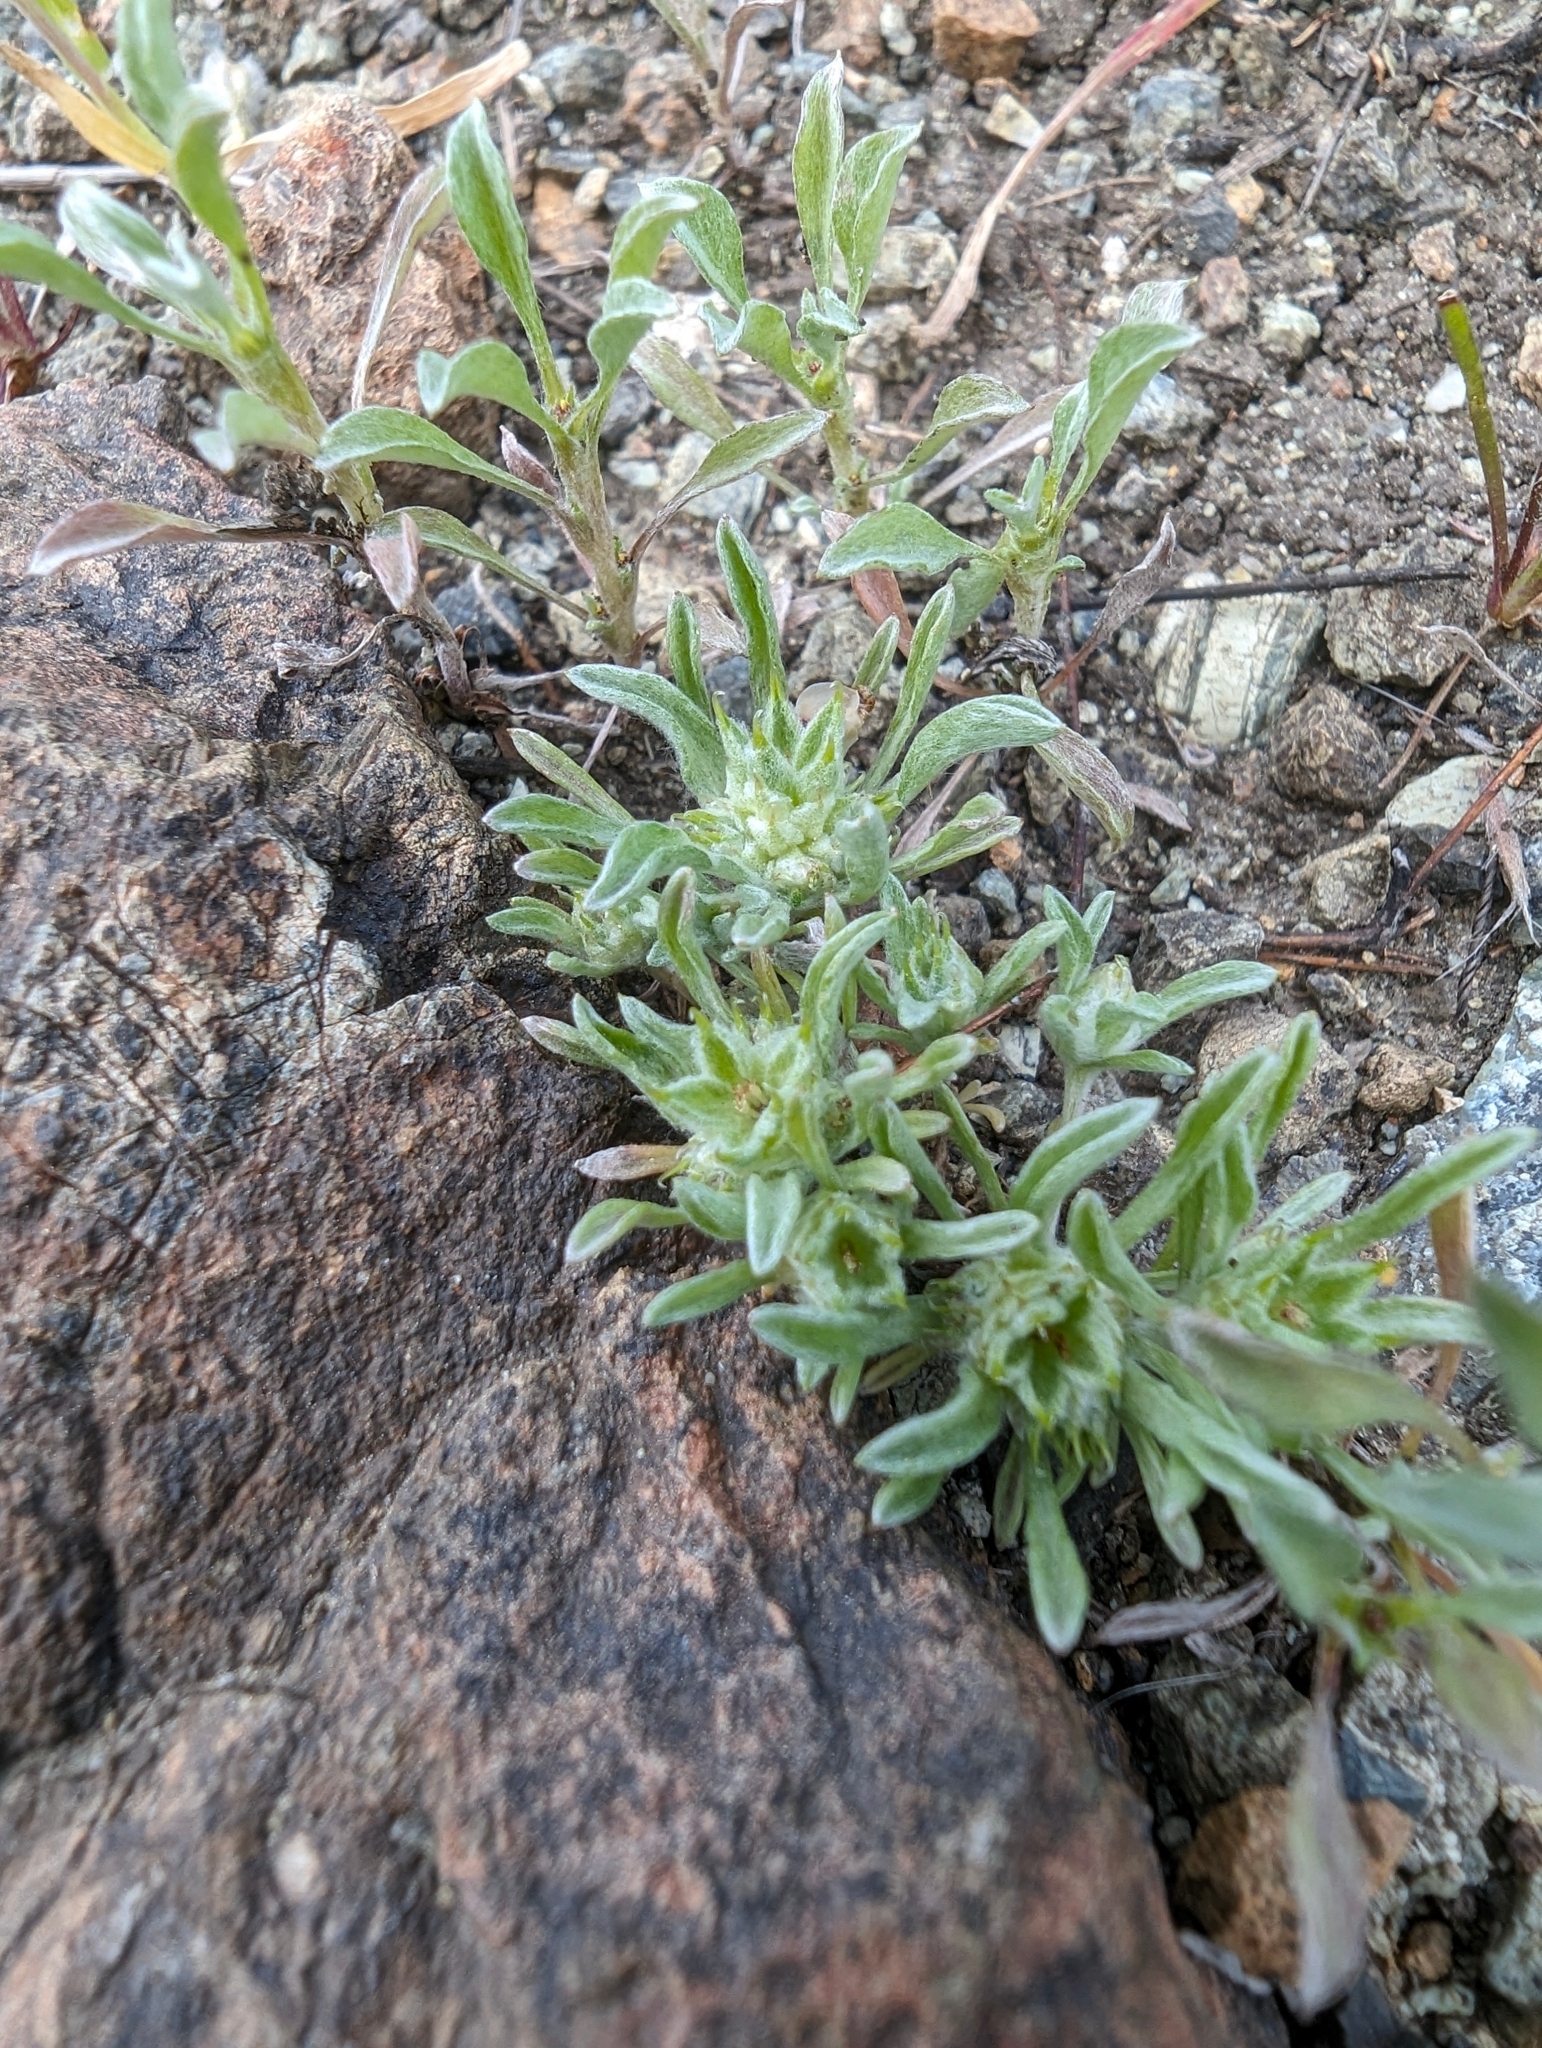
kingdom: Plantae
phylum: Tracheophyta
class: Magnoliopsida
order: Asterales
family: Asteraceae
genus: Ancistrocarphus
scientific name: Ancistrocarphus filagineus
